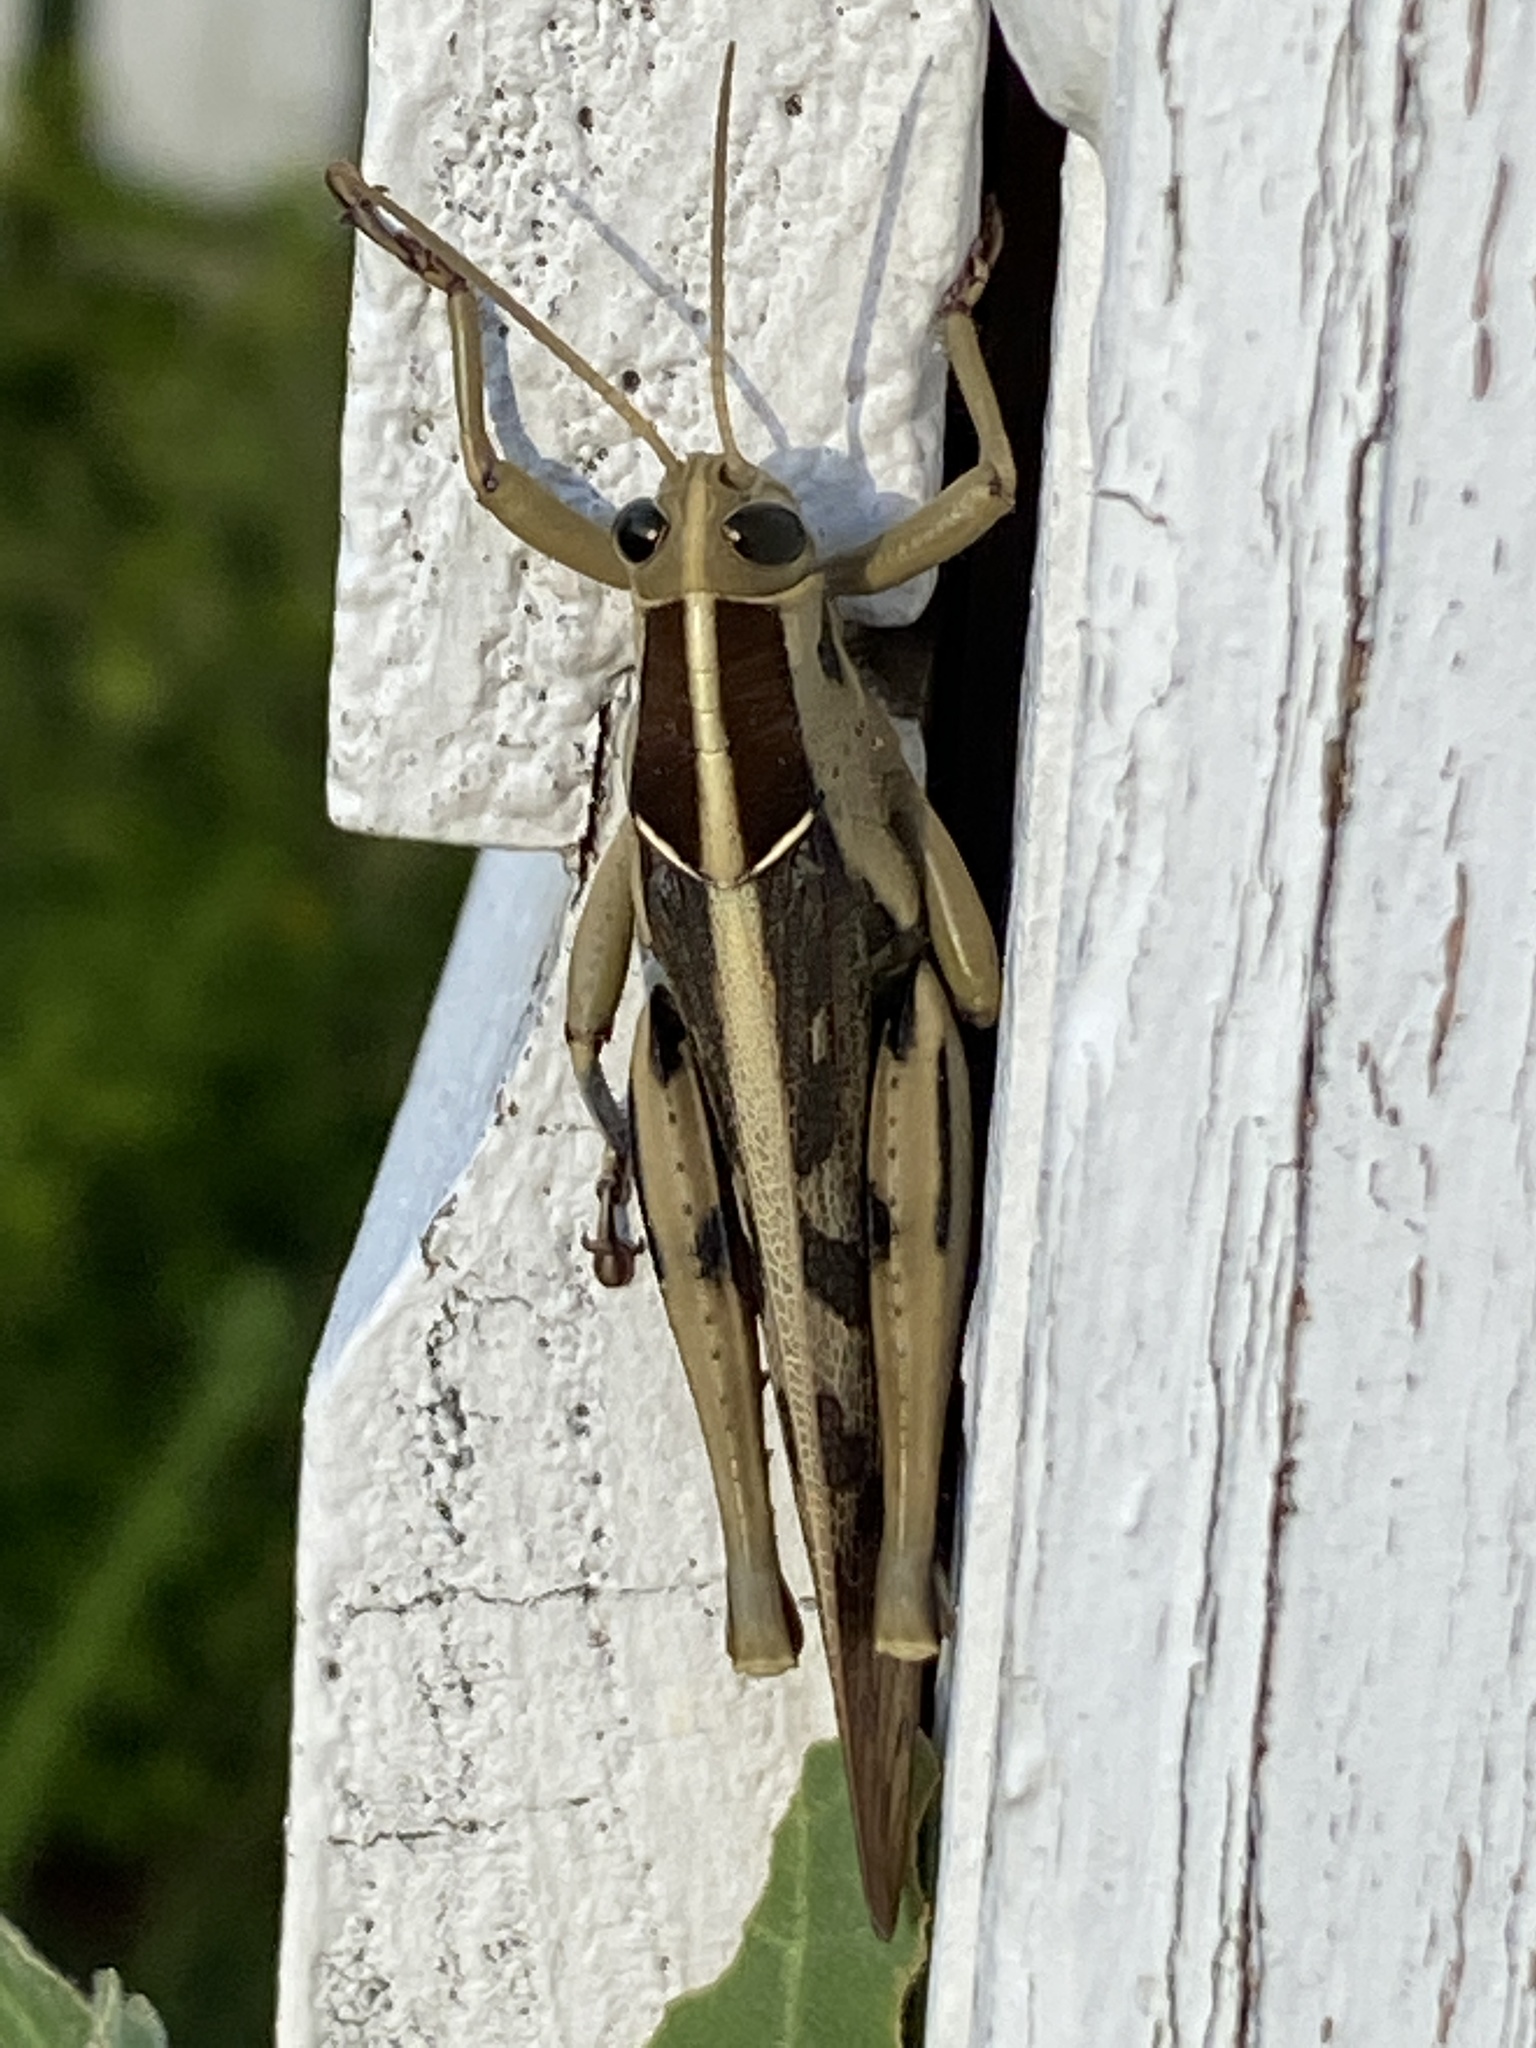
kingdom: Animalia
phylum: Arthropoda
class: Insecta
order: Orthoptera
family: Acrididae
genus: Acanthacris
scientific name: Acanthacris ruficornis
